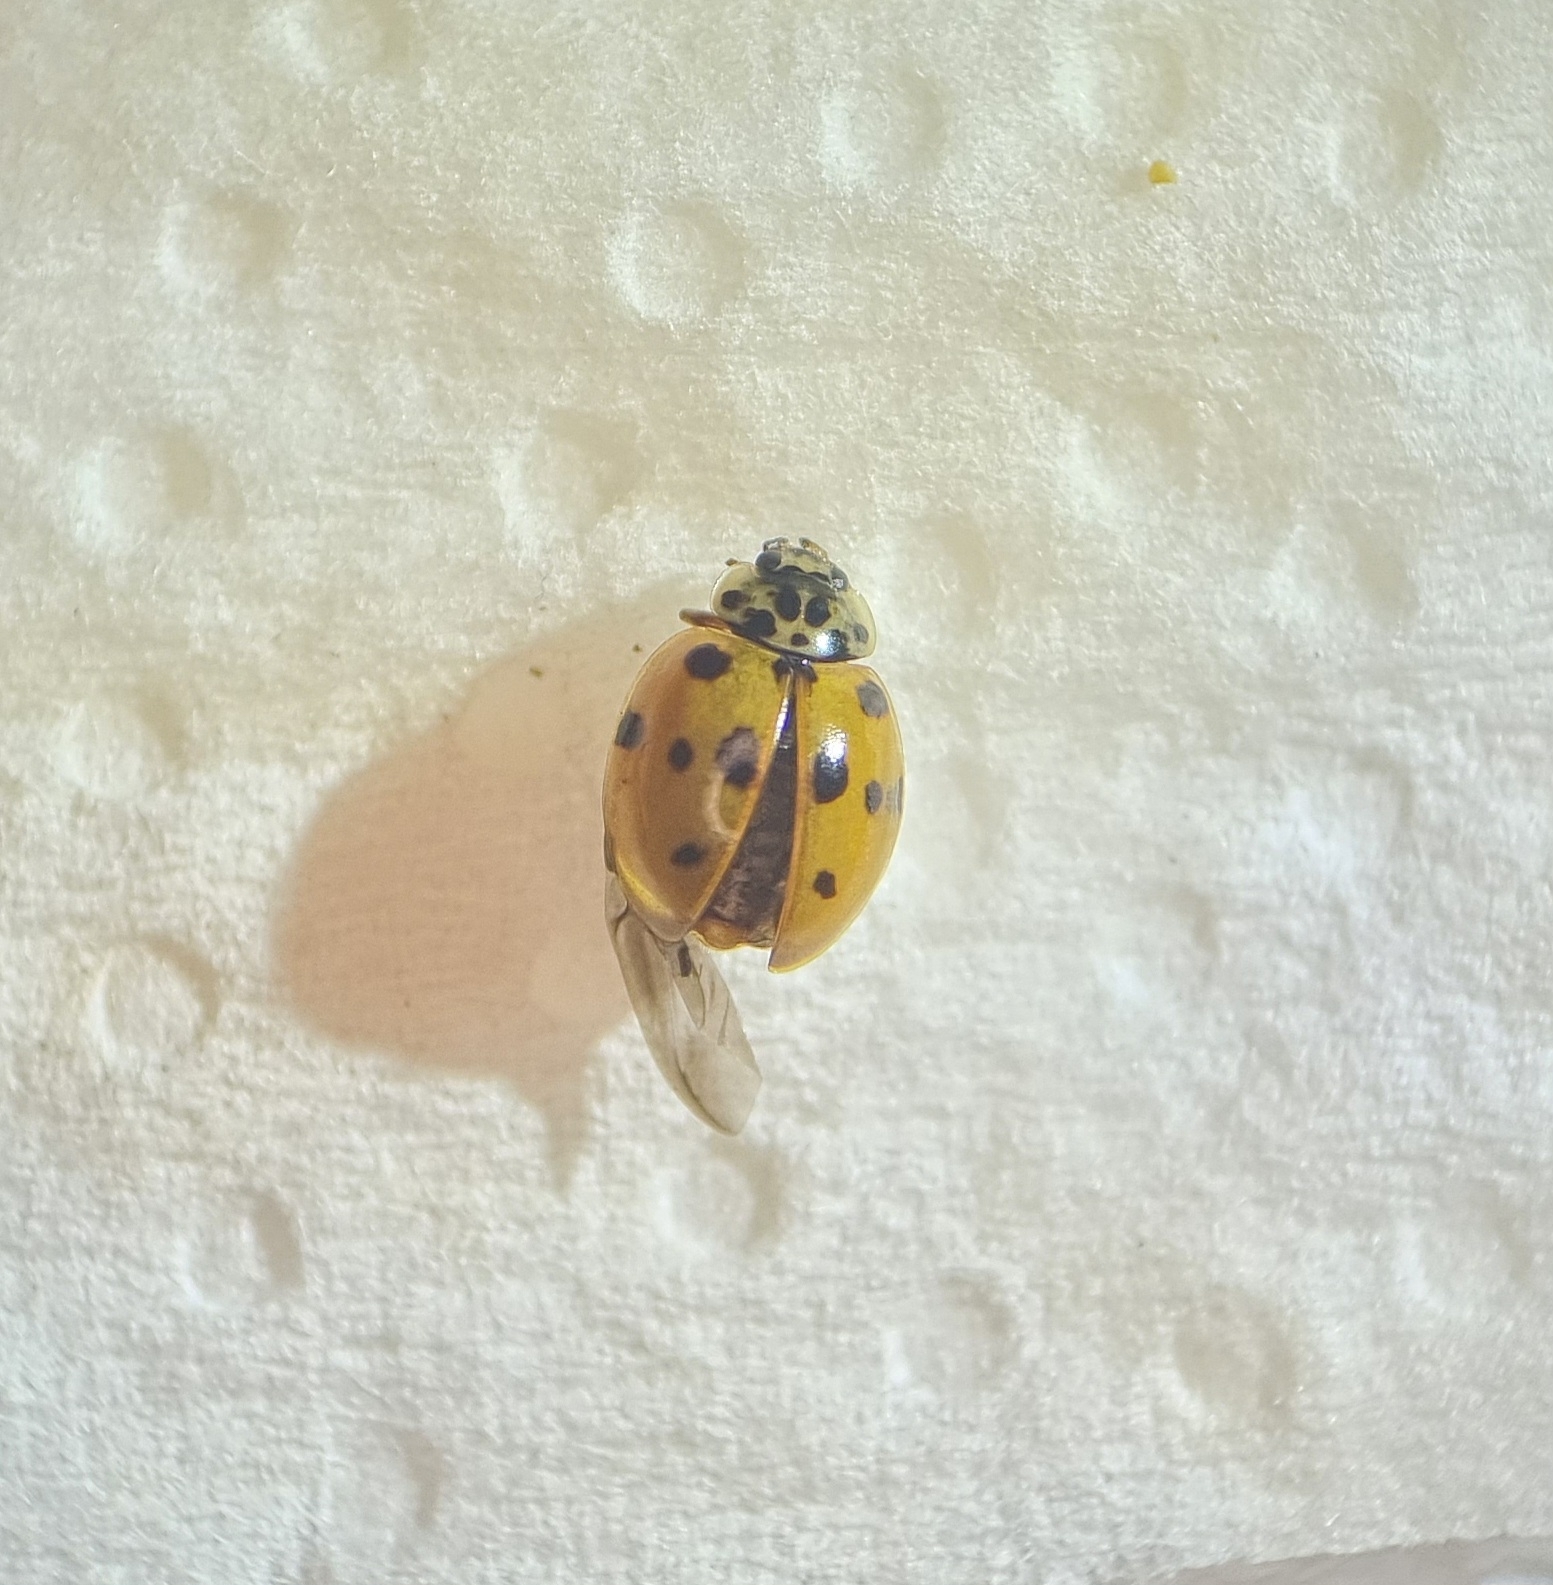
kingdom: Animalia
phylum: Arthropoda
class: Insecta
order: Coleoptera
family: Coccinellidae
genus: Adalia
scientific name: Adalia decempunctata
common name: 10-spot ladybird
